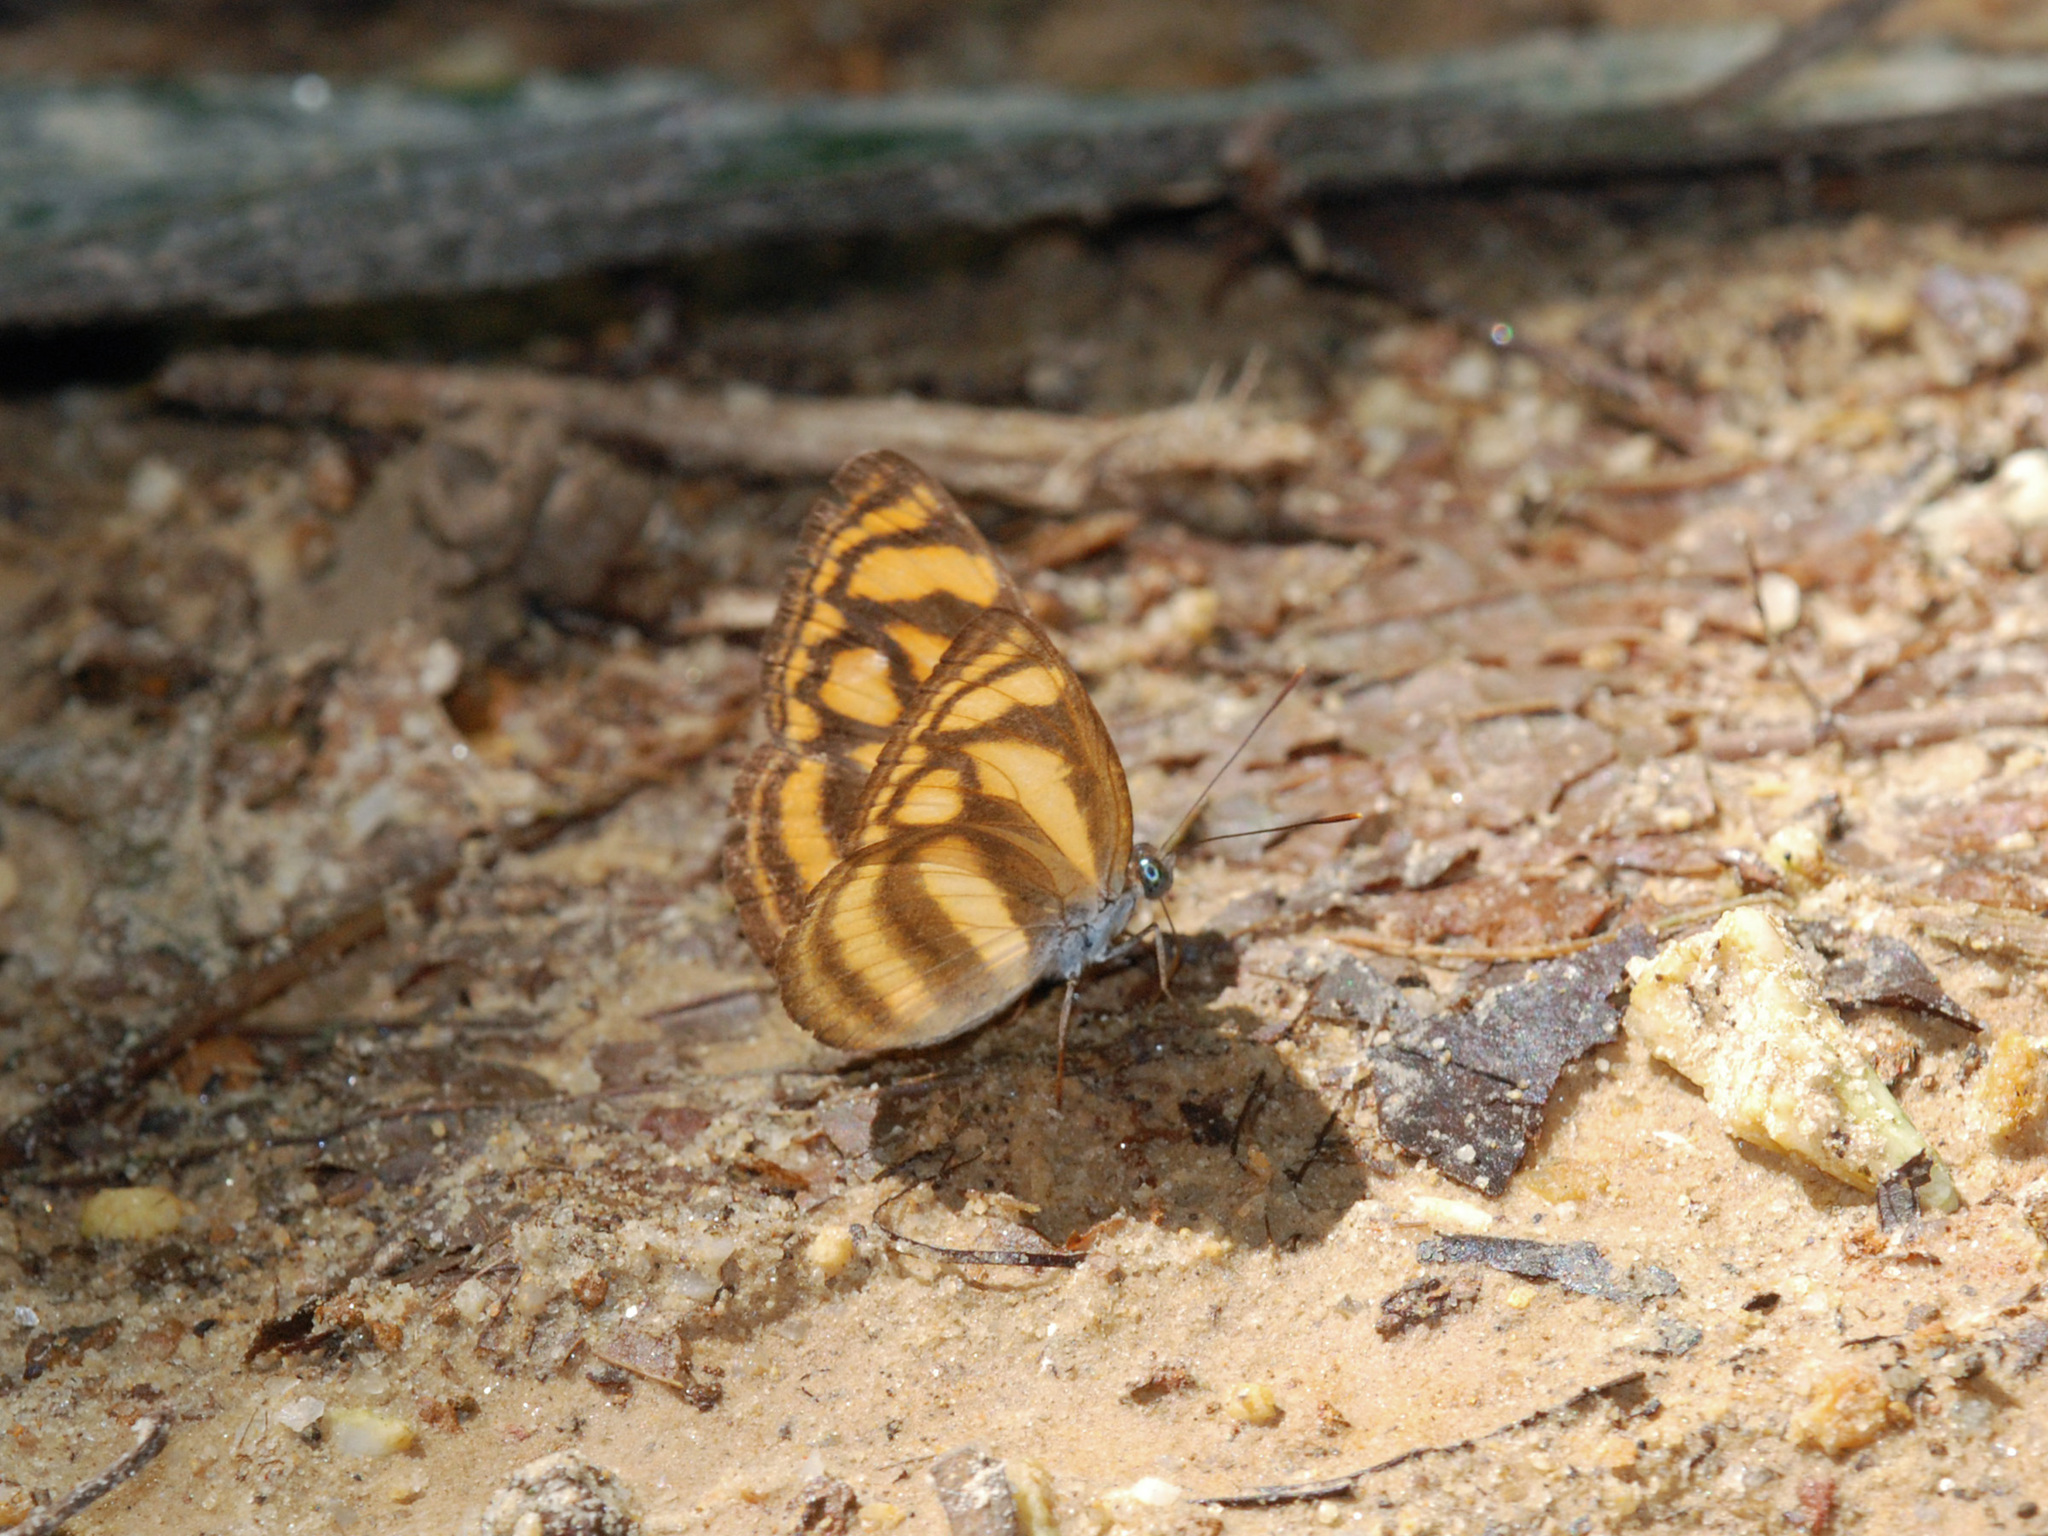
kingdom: Animalia
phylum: Arthropoda
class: Insecta
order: Lepidoptera
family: Nymphalidae
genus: Lasippa
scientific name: Lasippa heliodore
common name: Burmese lascar
